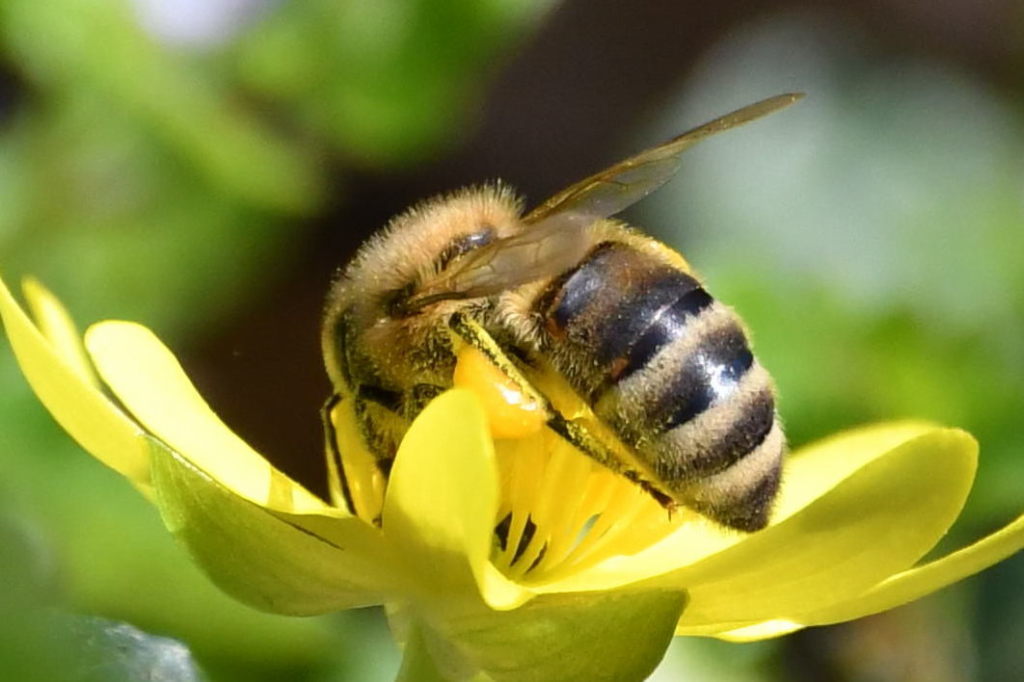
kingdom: Animalia
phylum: Arthropoda
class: Insecta
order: Hymenoptera
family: Apidae
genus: Apis
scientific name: Apis mellifera
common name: Honey bee
